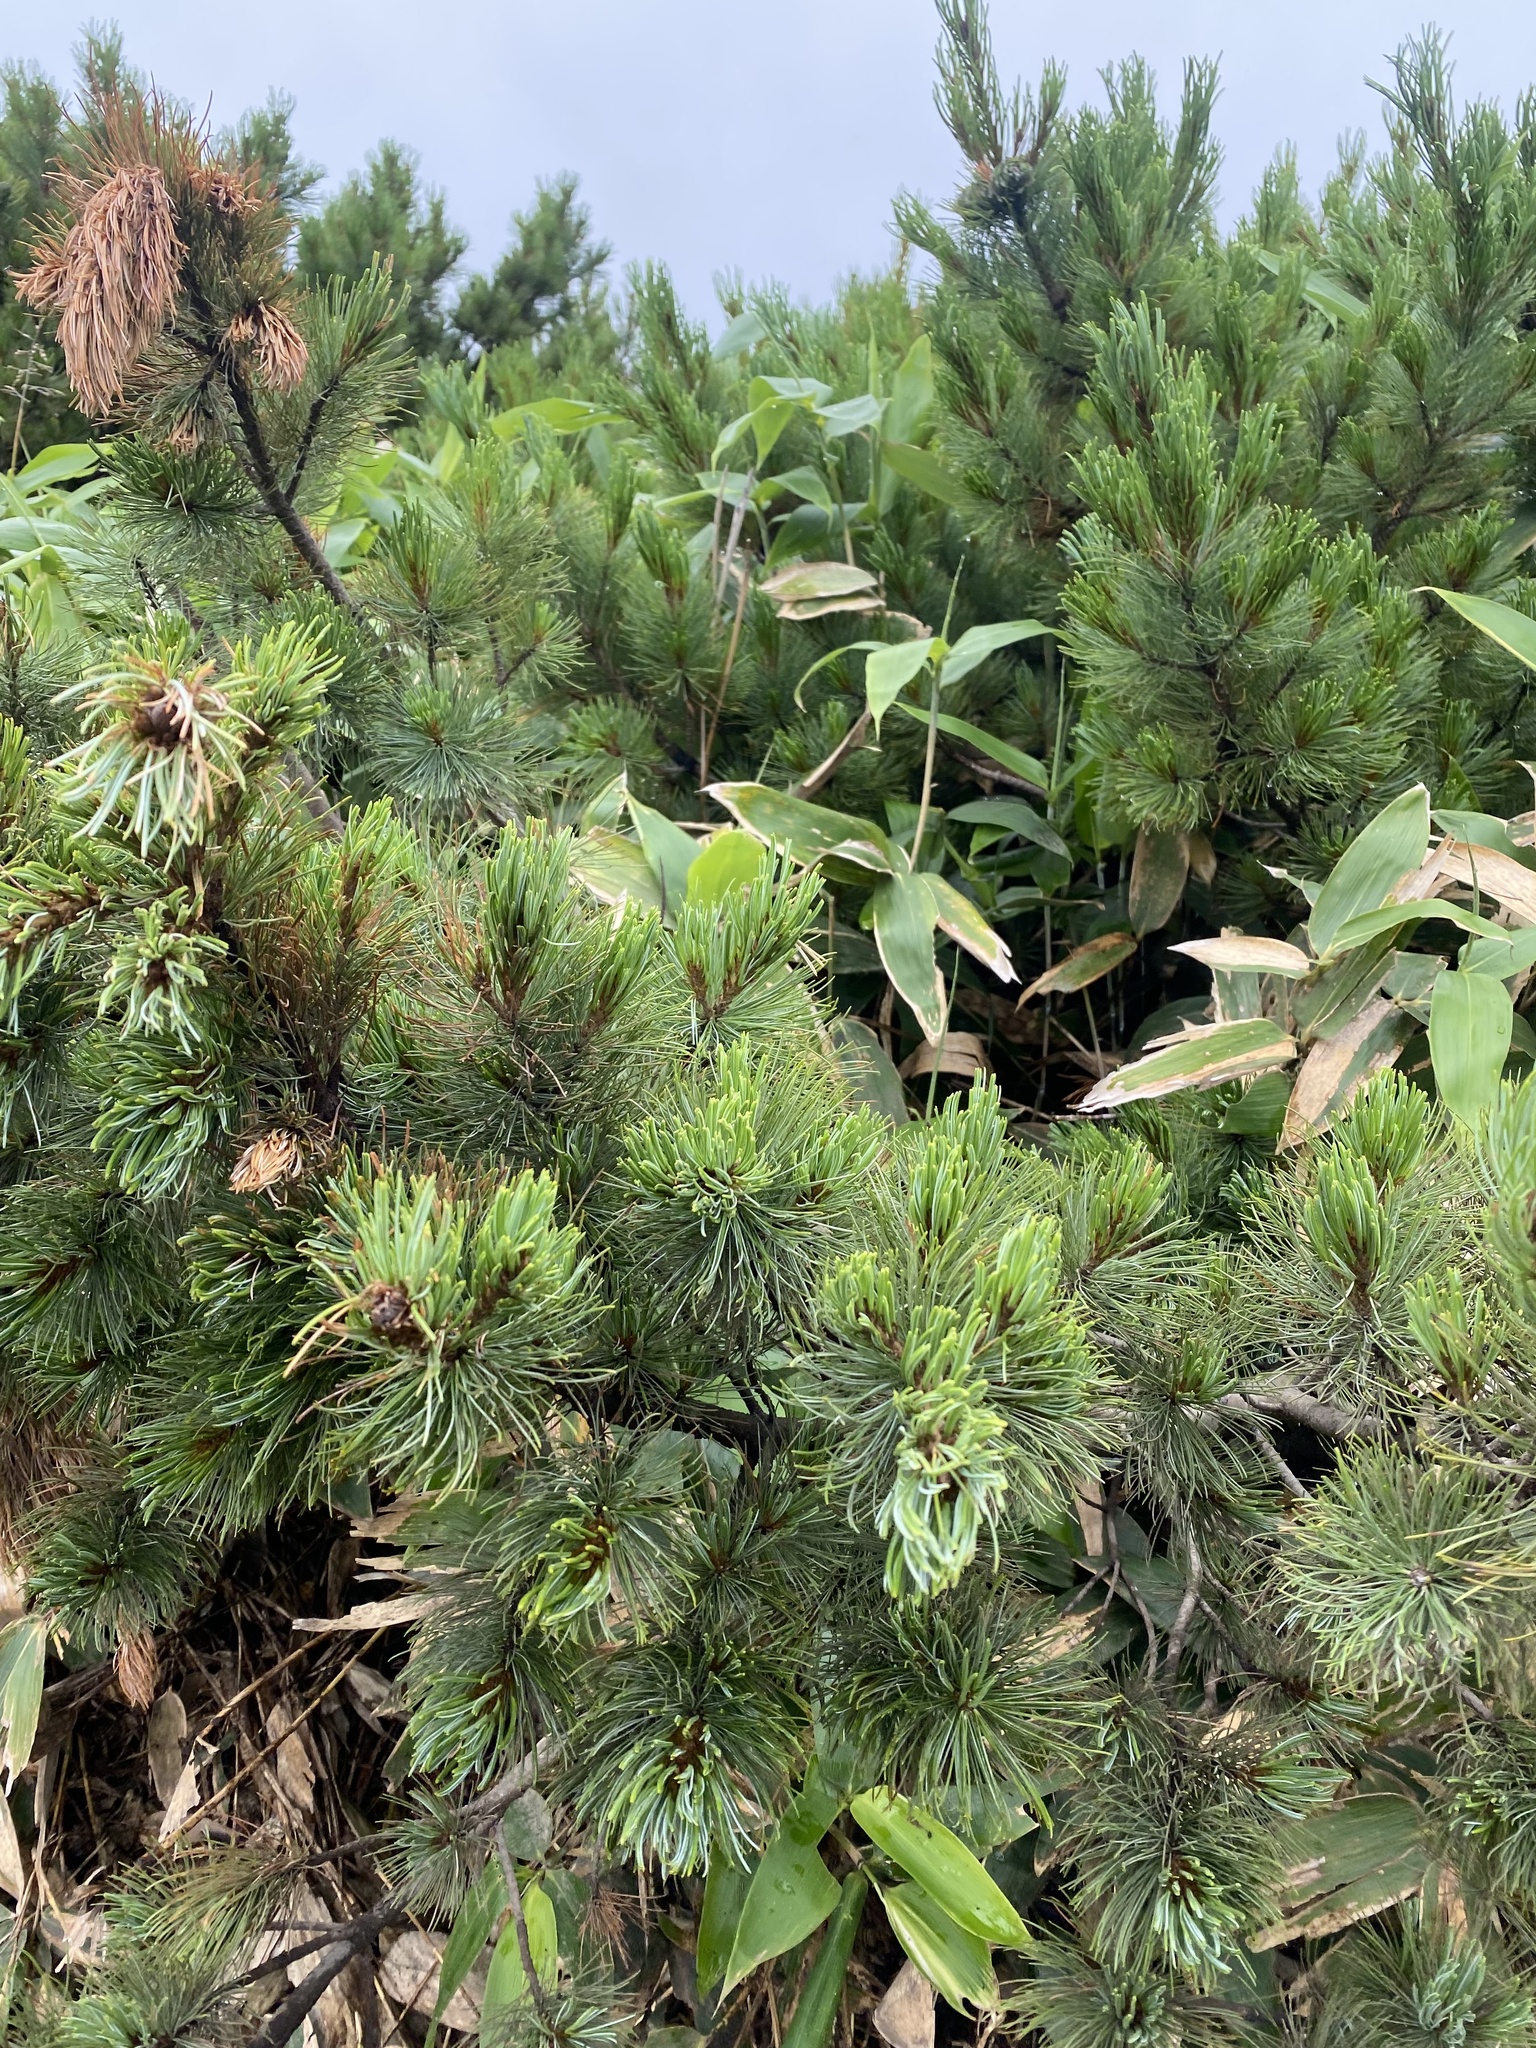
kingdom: Plantae
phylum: Tracheophyta
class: Pinopsida
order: Pinales
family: Pinaceae
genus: Pinus
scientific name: Pinus pumila
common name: Dwarf siberian pine
